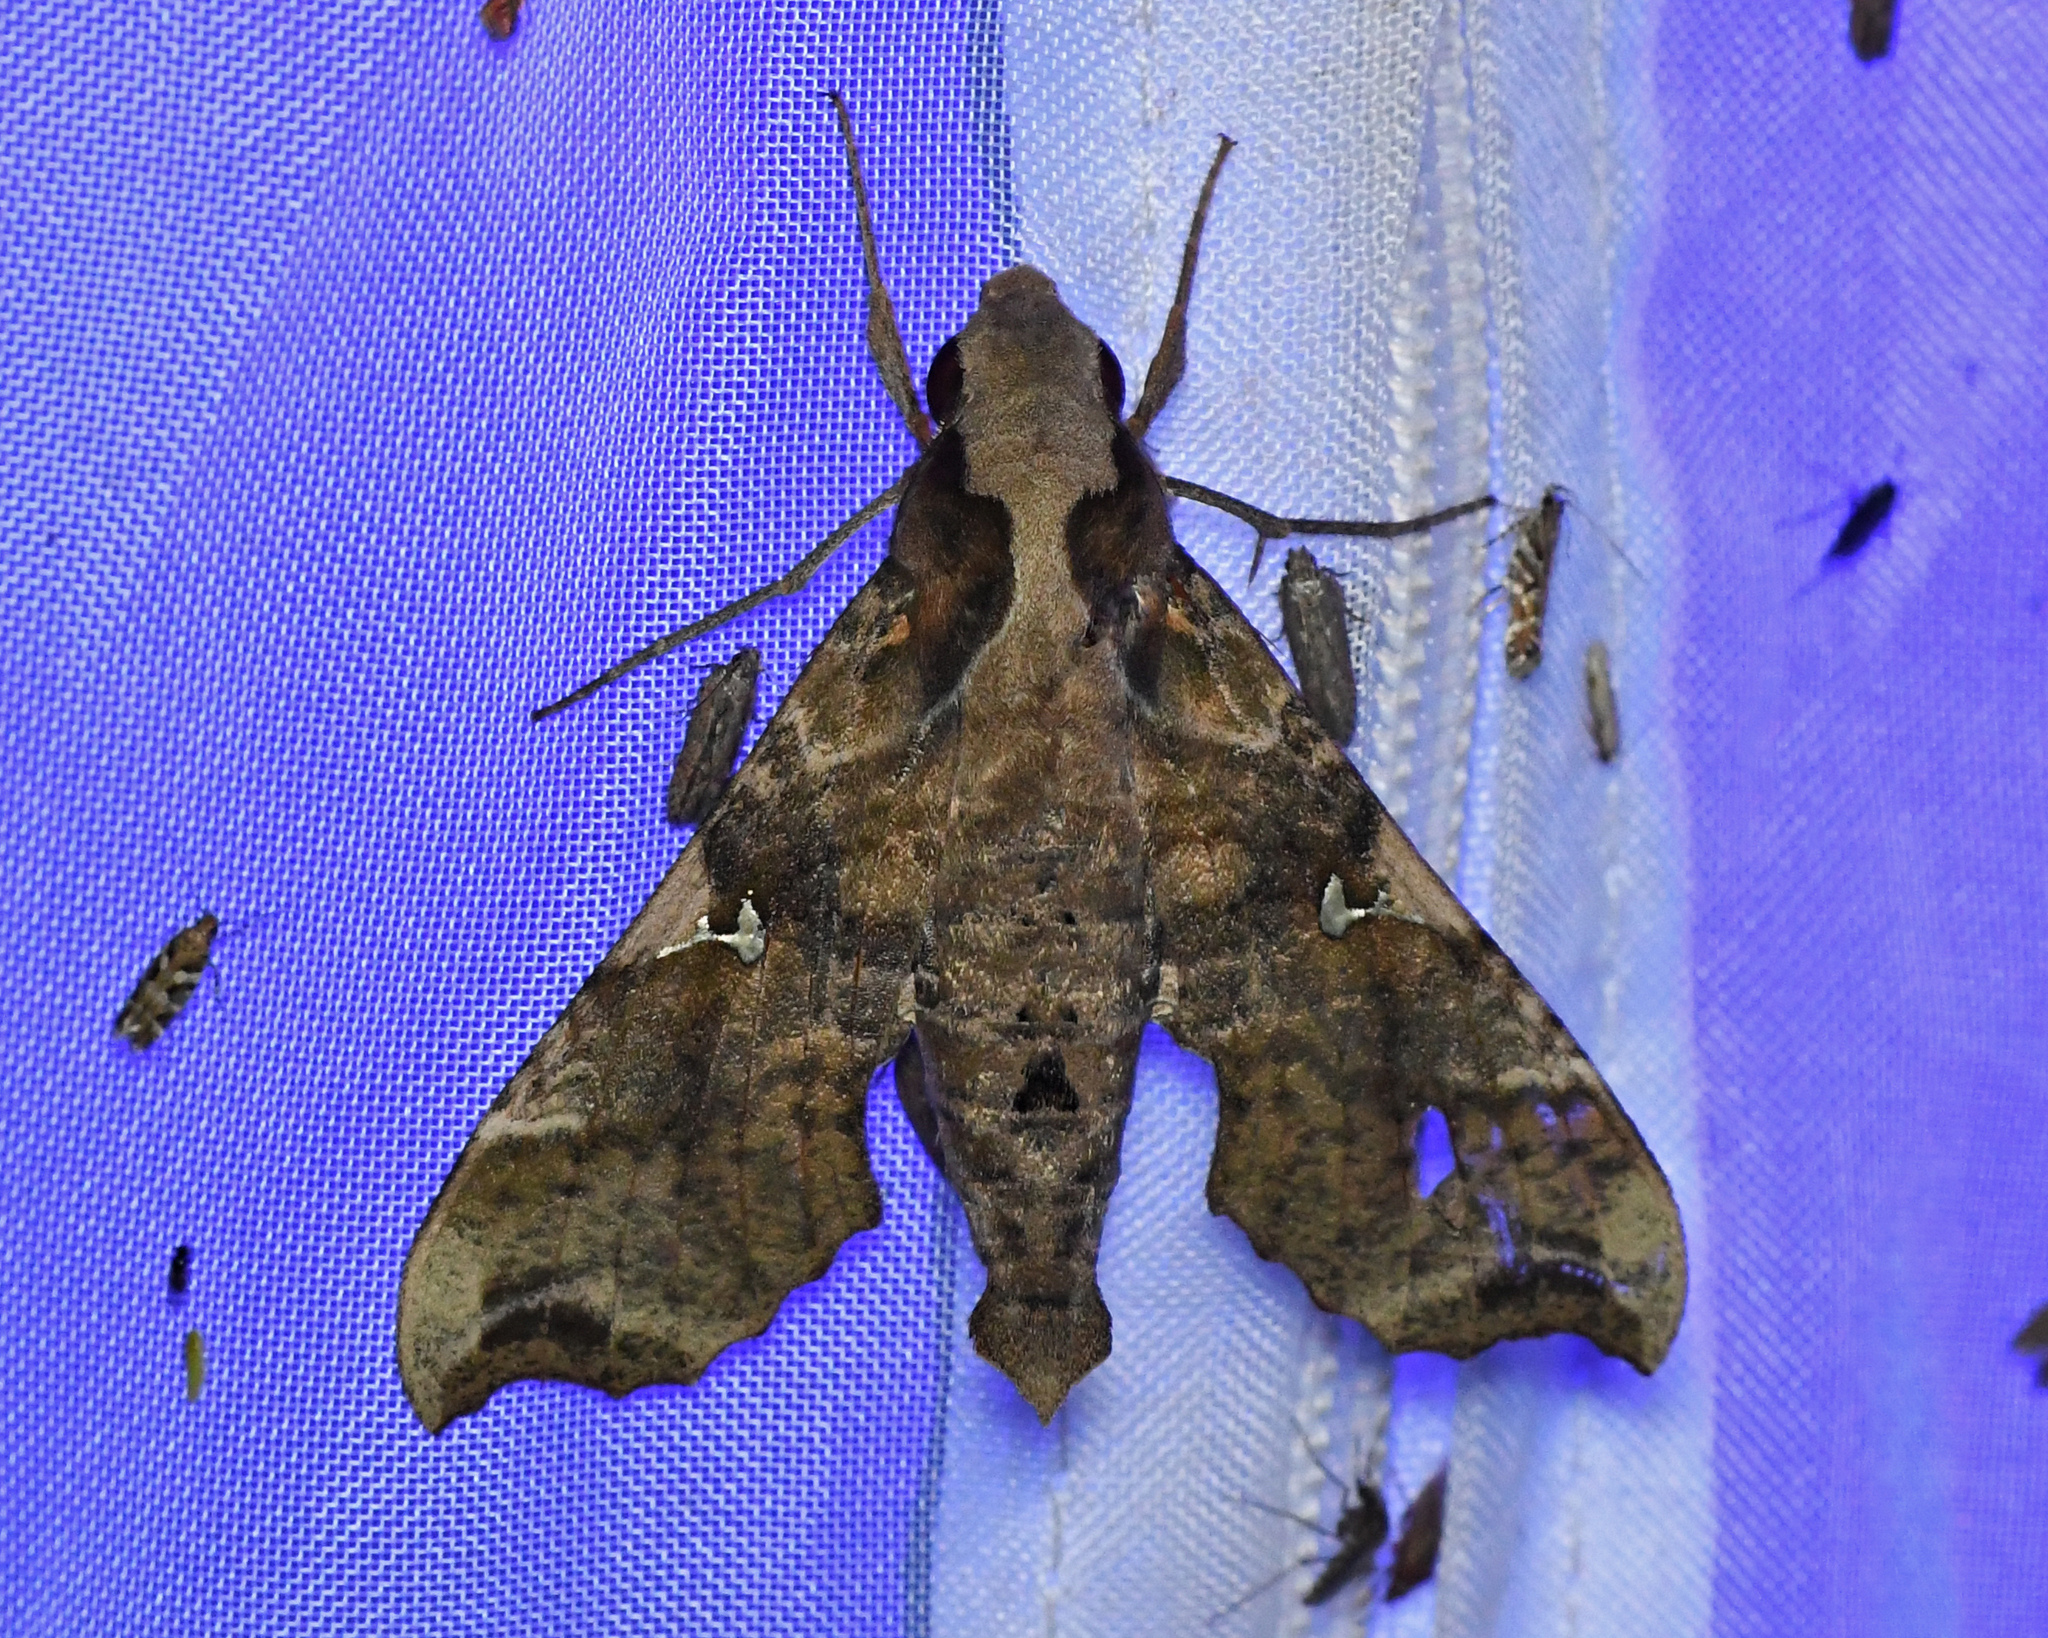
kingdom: Animalia
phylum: Arthropoda
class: Insecta
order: Lepidoptera
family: Sphingidae
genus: Callionima
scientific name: Callionima calliomenae
